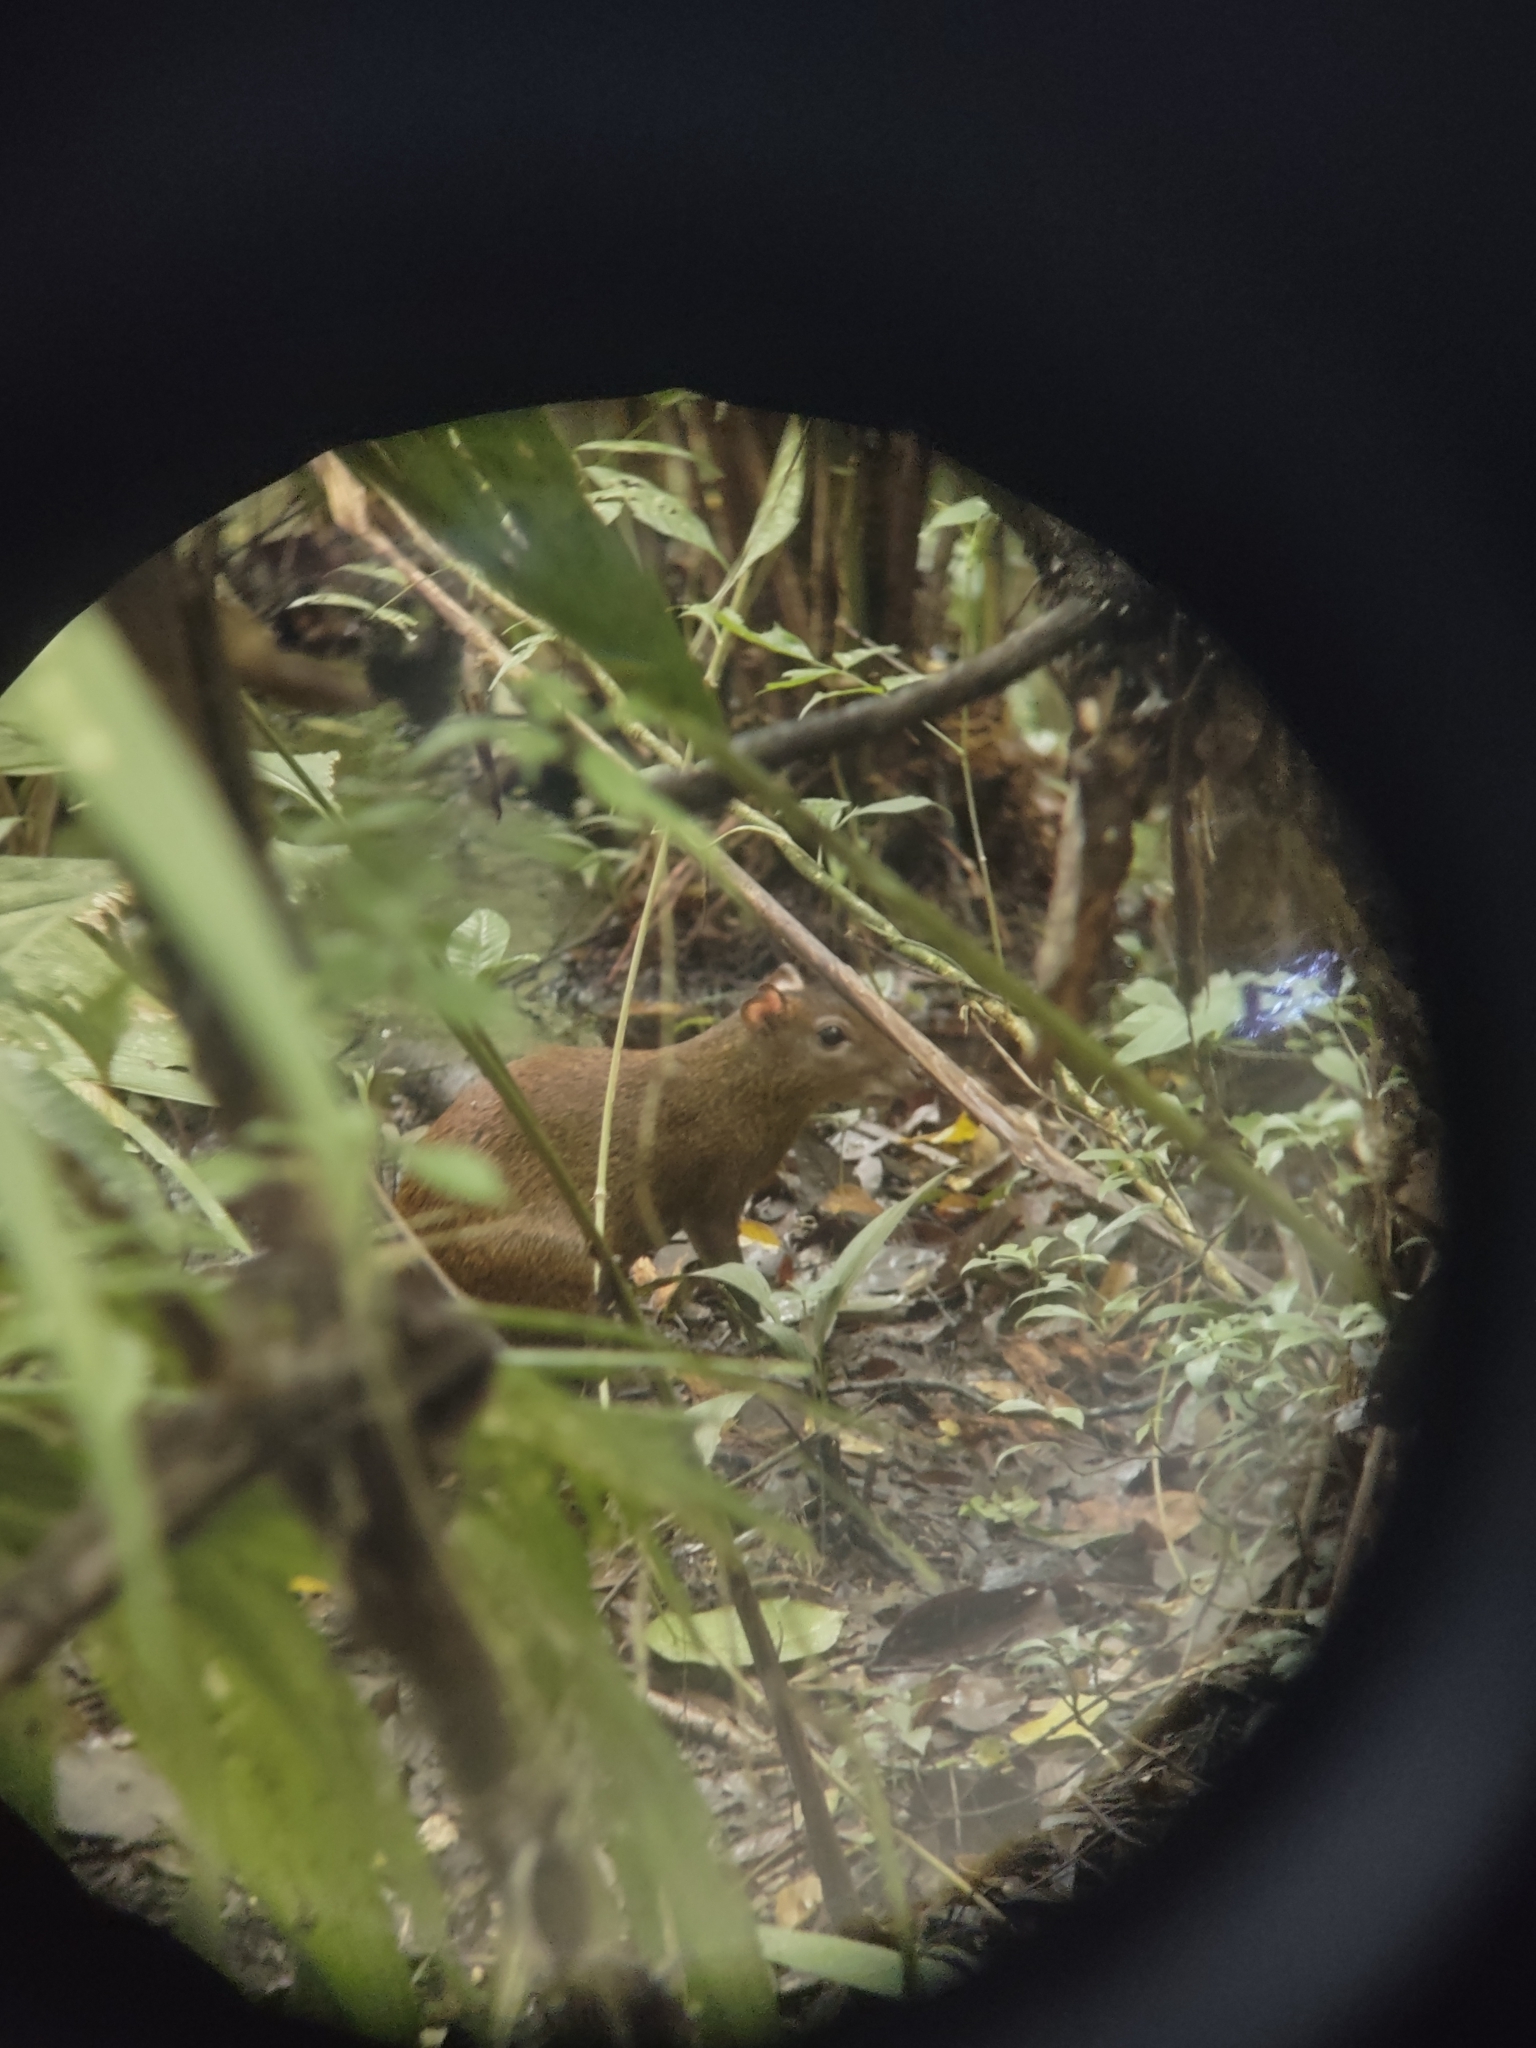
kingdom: Animalia
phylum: Chordata
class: Mammalia
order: Rodentia
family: Dasyproctidae
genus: Dasyprocta
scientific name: Dasyprocta punctata
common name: Central american agouti
